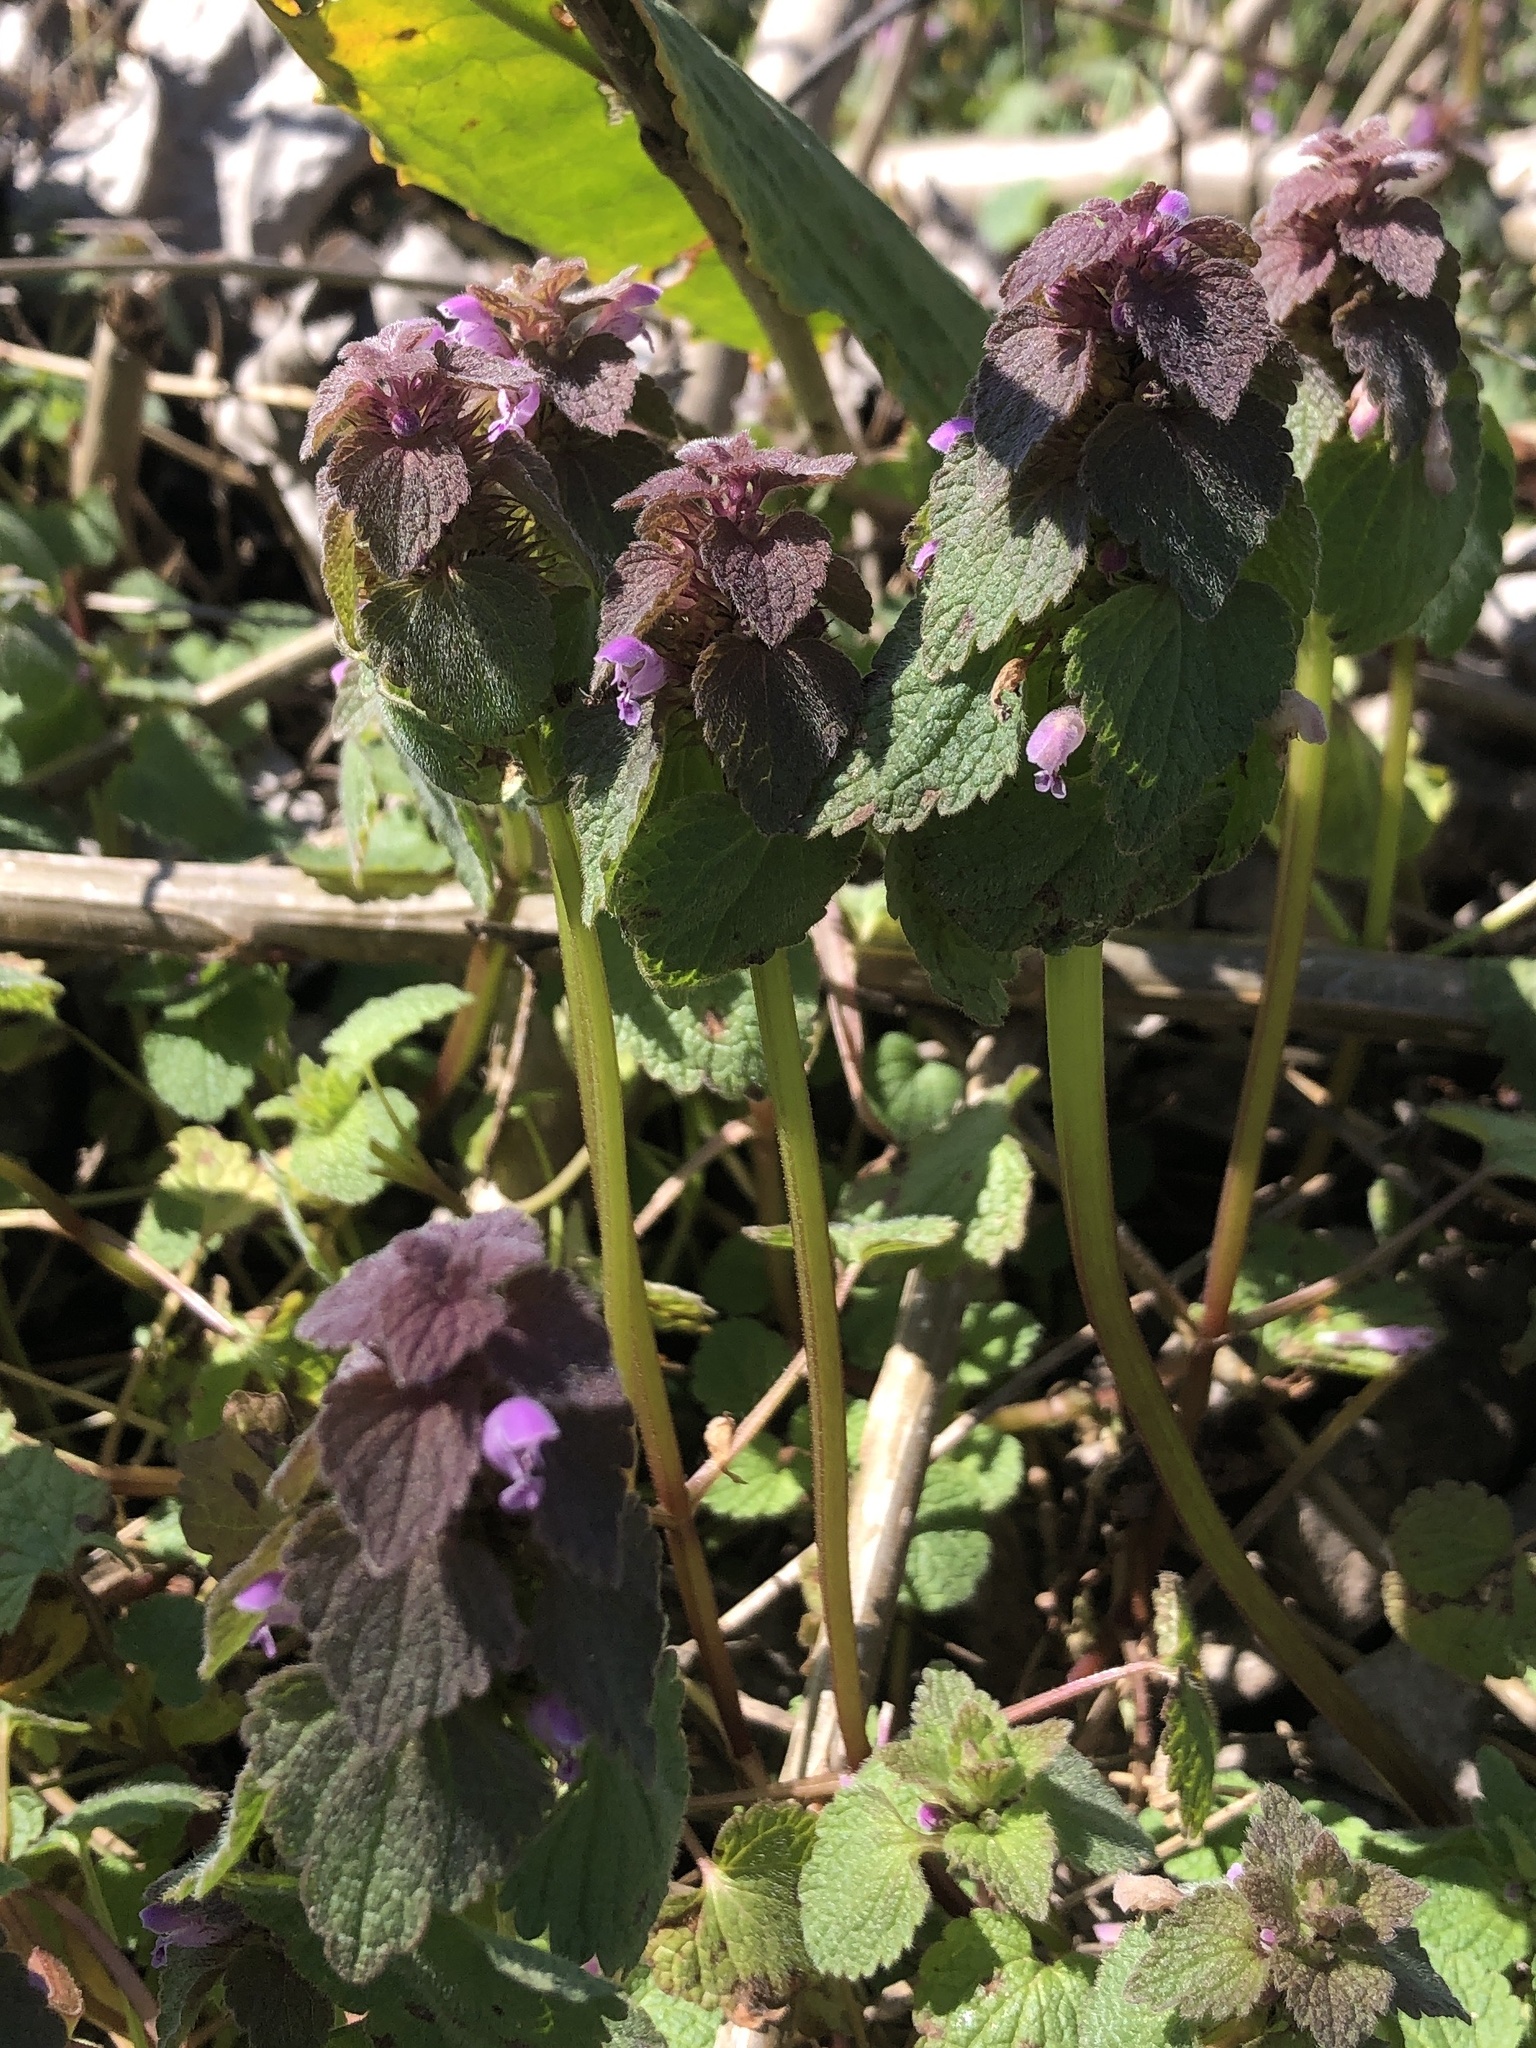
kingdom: Plantae
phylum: Tracheophyta
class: Magnoliopsida
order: Lamiales
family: Lamiaceae
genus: Lamium
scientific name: Lamium purpureum
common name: Red dead-nettle
